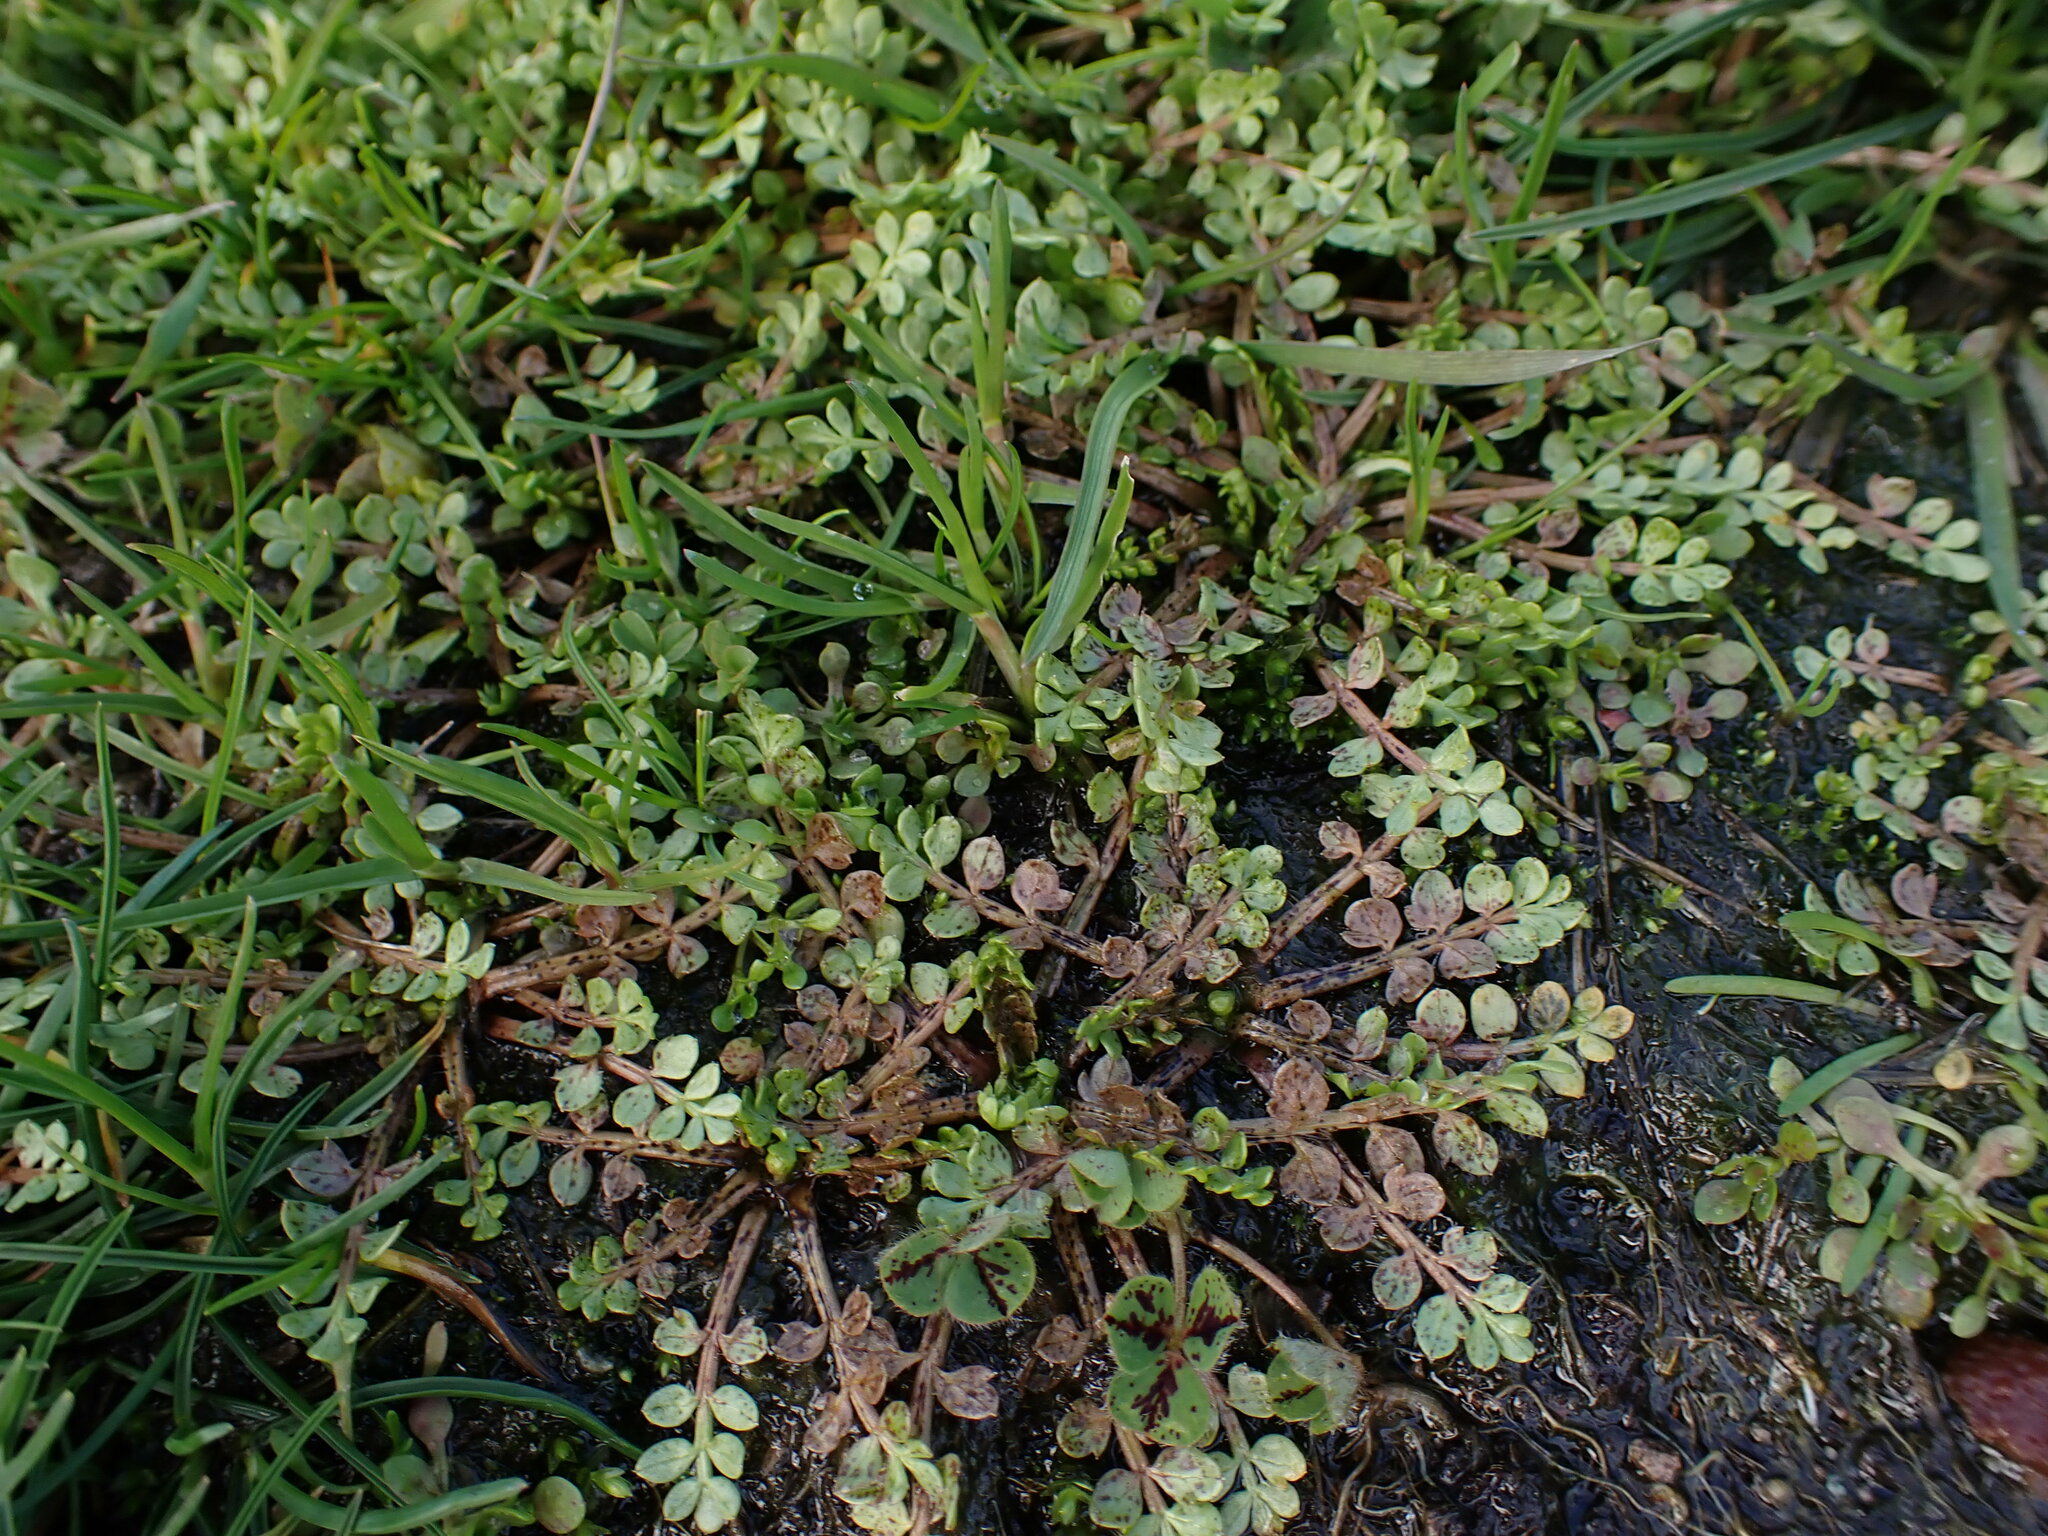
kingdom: Plantae
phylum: Tracheophyta
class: Magnoliopsida
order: Brassicales
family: Limnanthaceae
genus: Limnanthes
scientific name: Limnanthes macounii
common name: Macoun's meadowfoam
